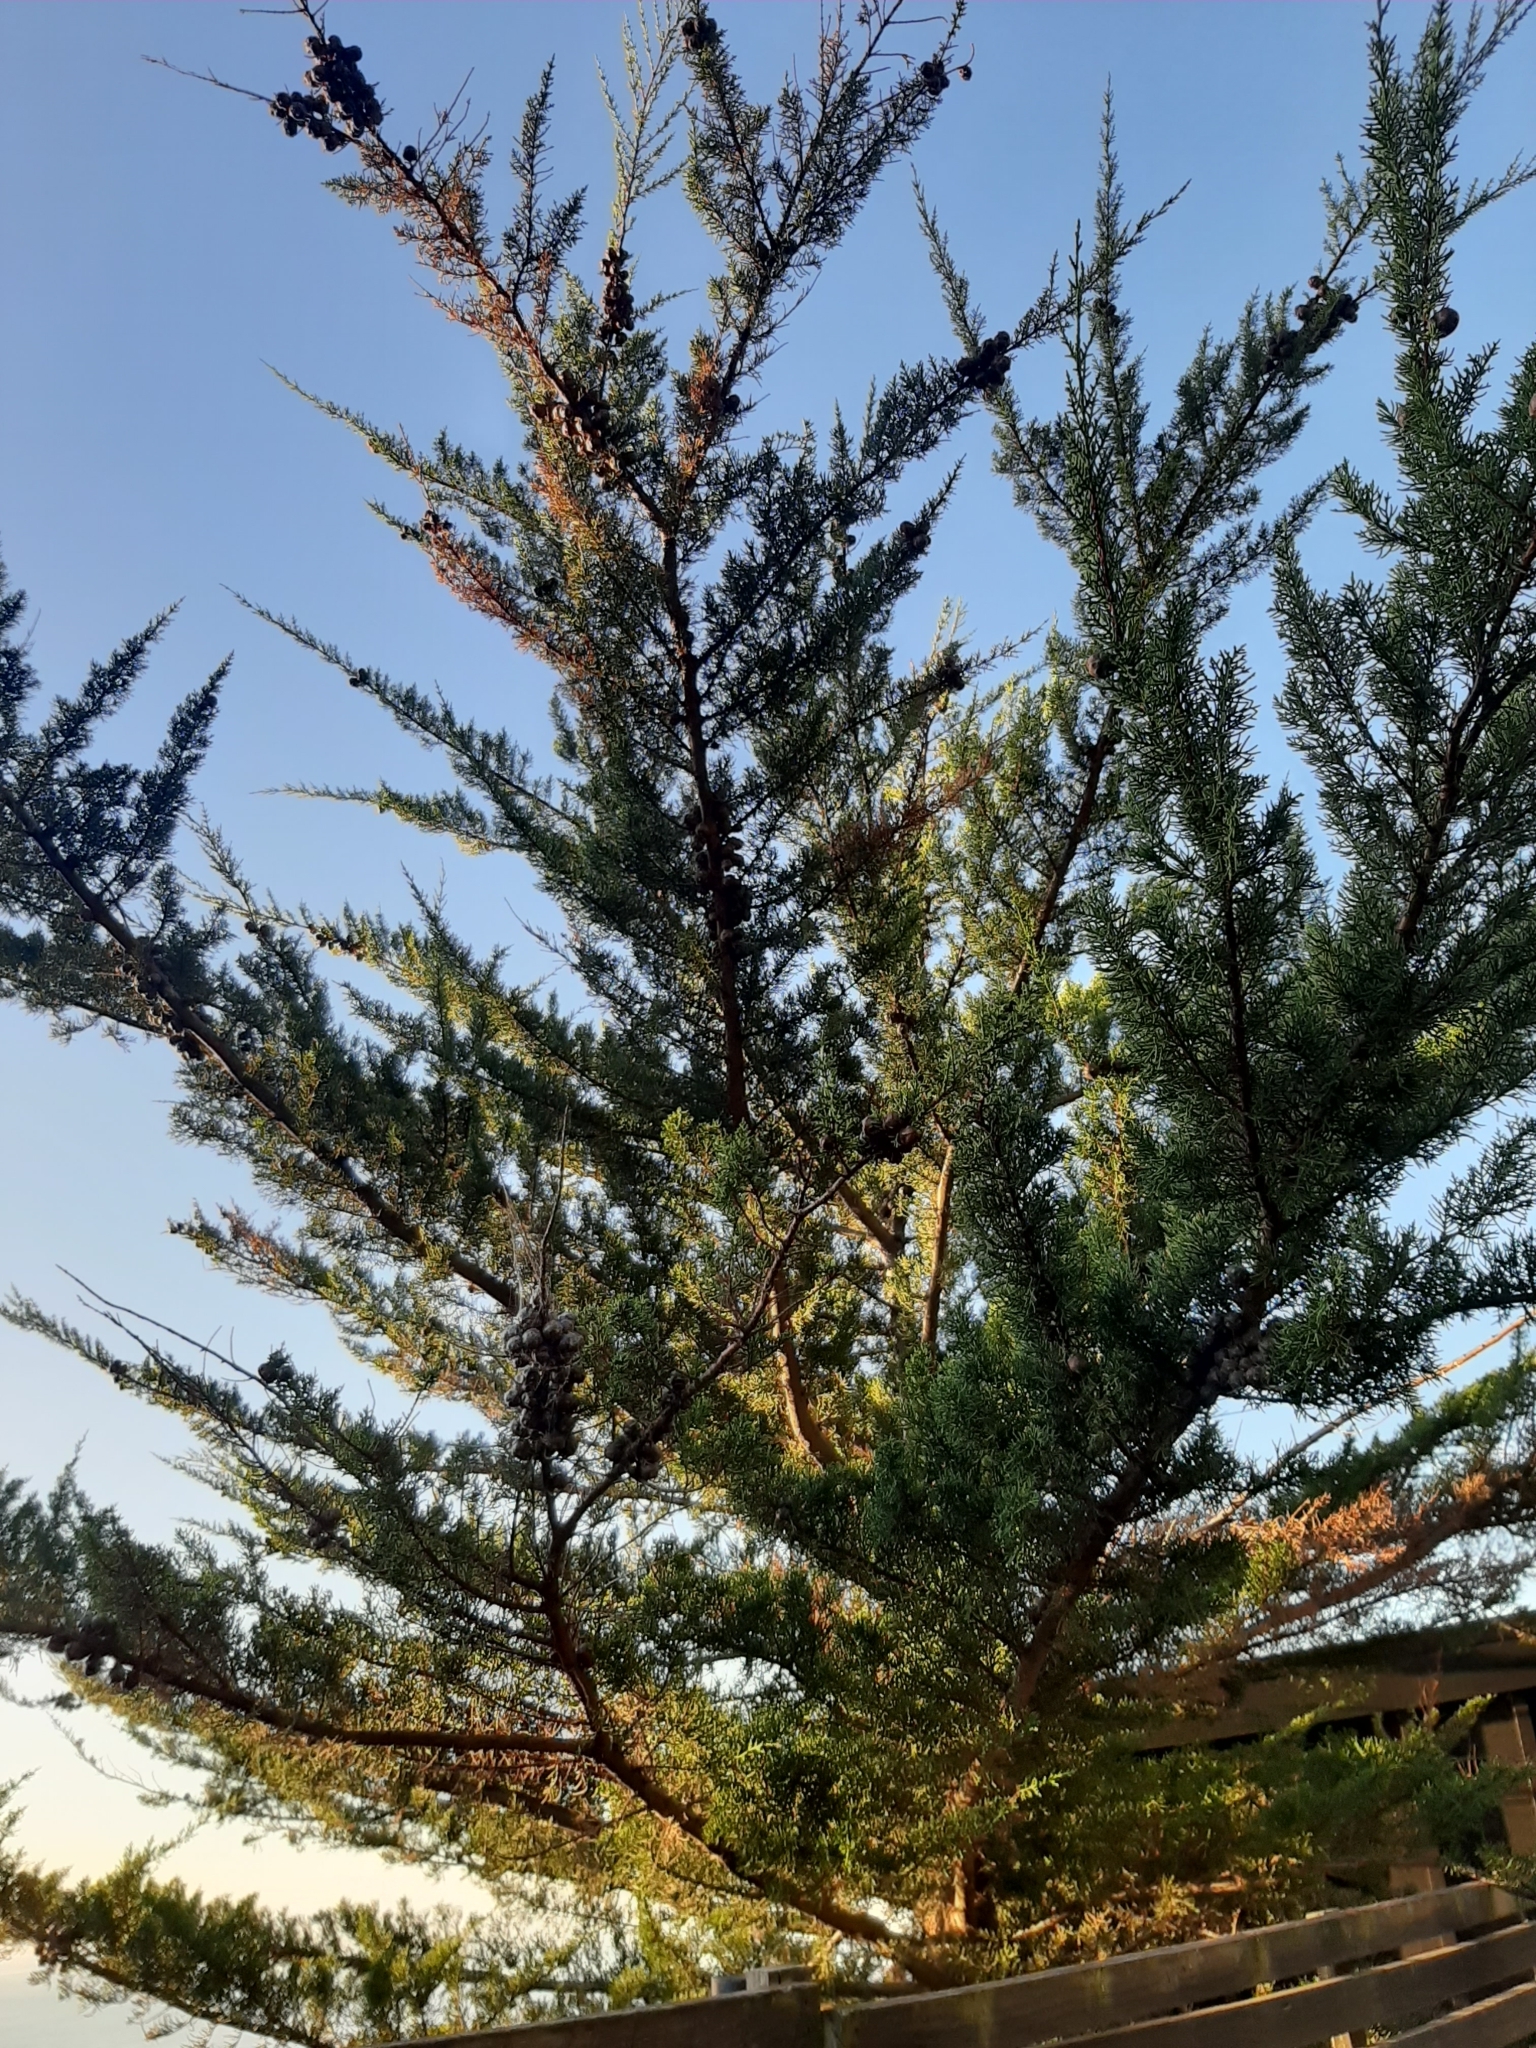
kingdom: Plantae
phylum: Tracheophyta
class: Pinopsida
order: Pinales
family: Cupressaceae
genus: Cupressus
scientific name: Cupressus macrocarpa
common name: Monterey cypress
